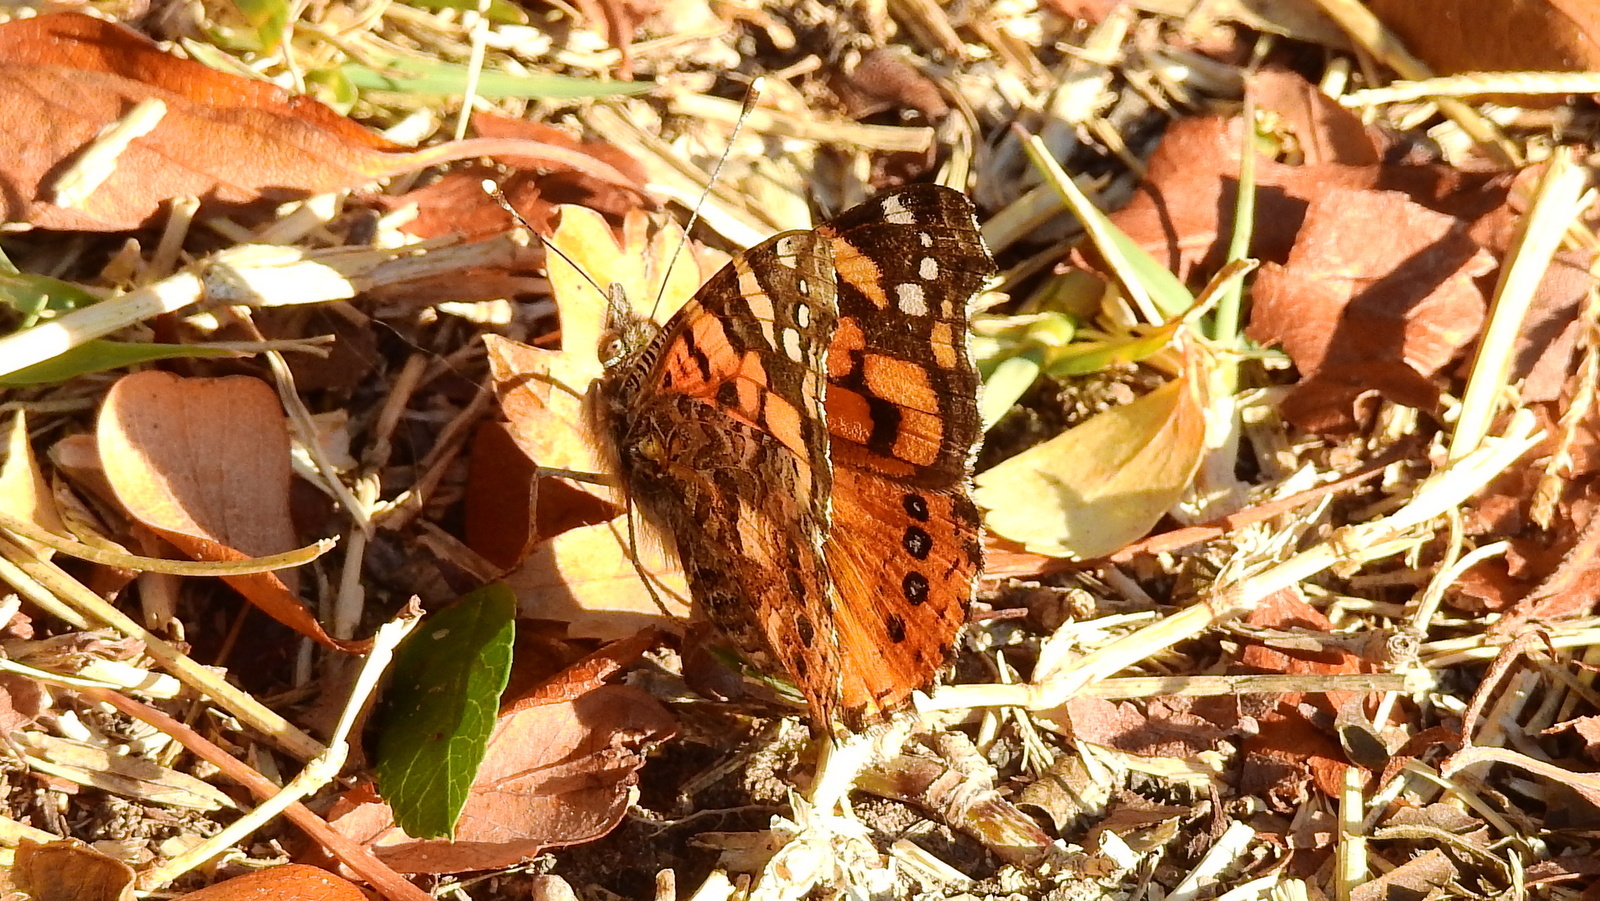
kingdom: Animalia
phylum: Arthropoda
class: Insecta
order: Lepidoptera
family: Nymphalidae
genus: Vanessa
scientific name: Vanessa carye
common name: Subtropical lady
